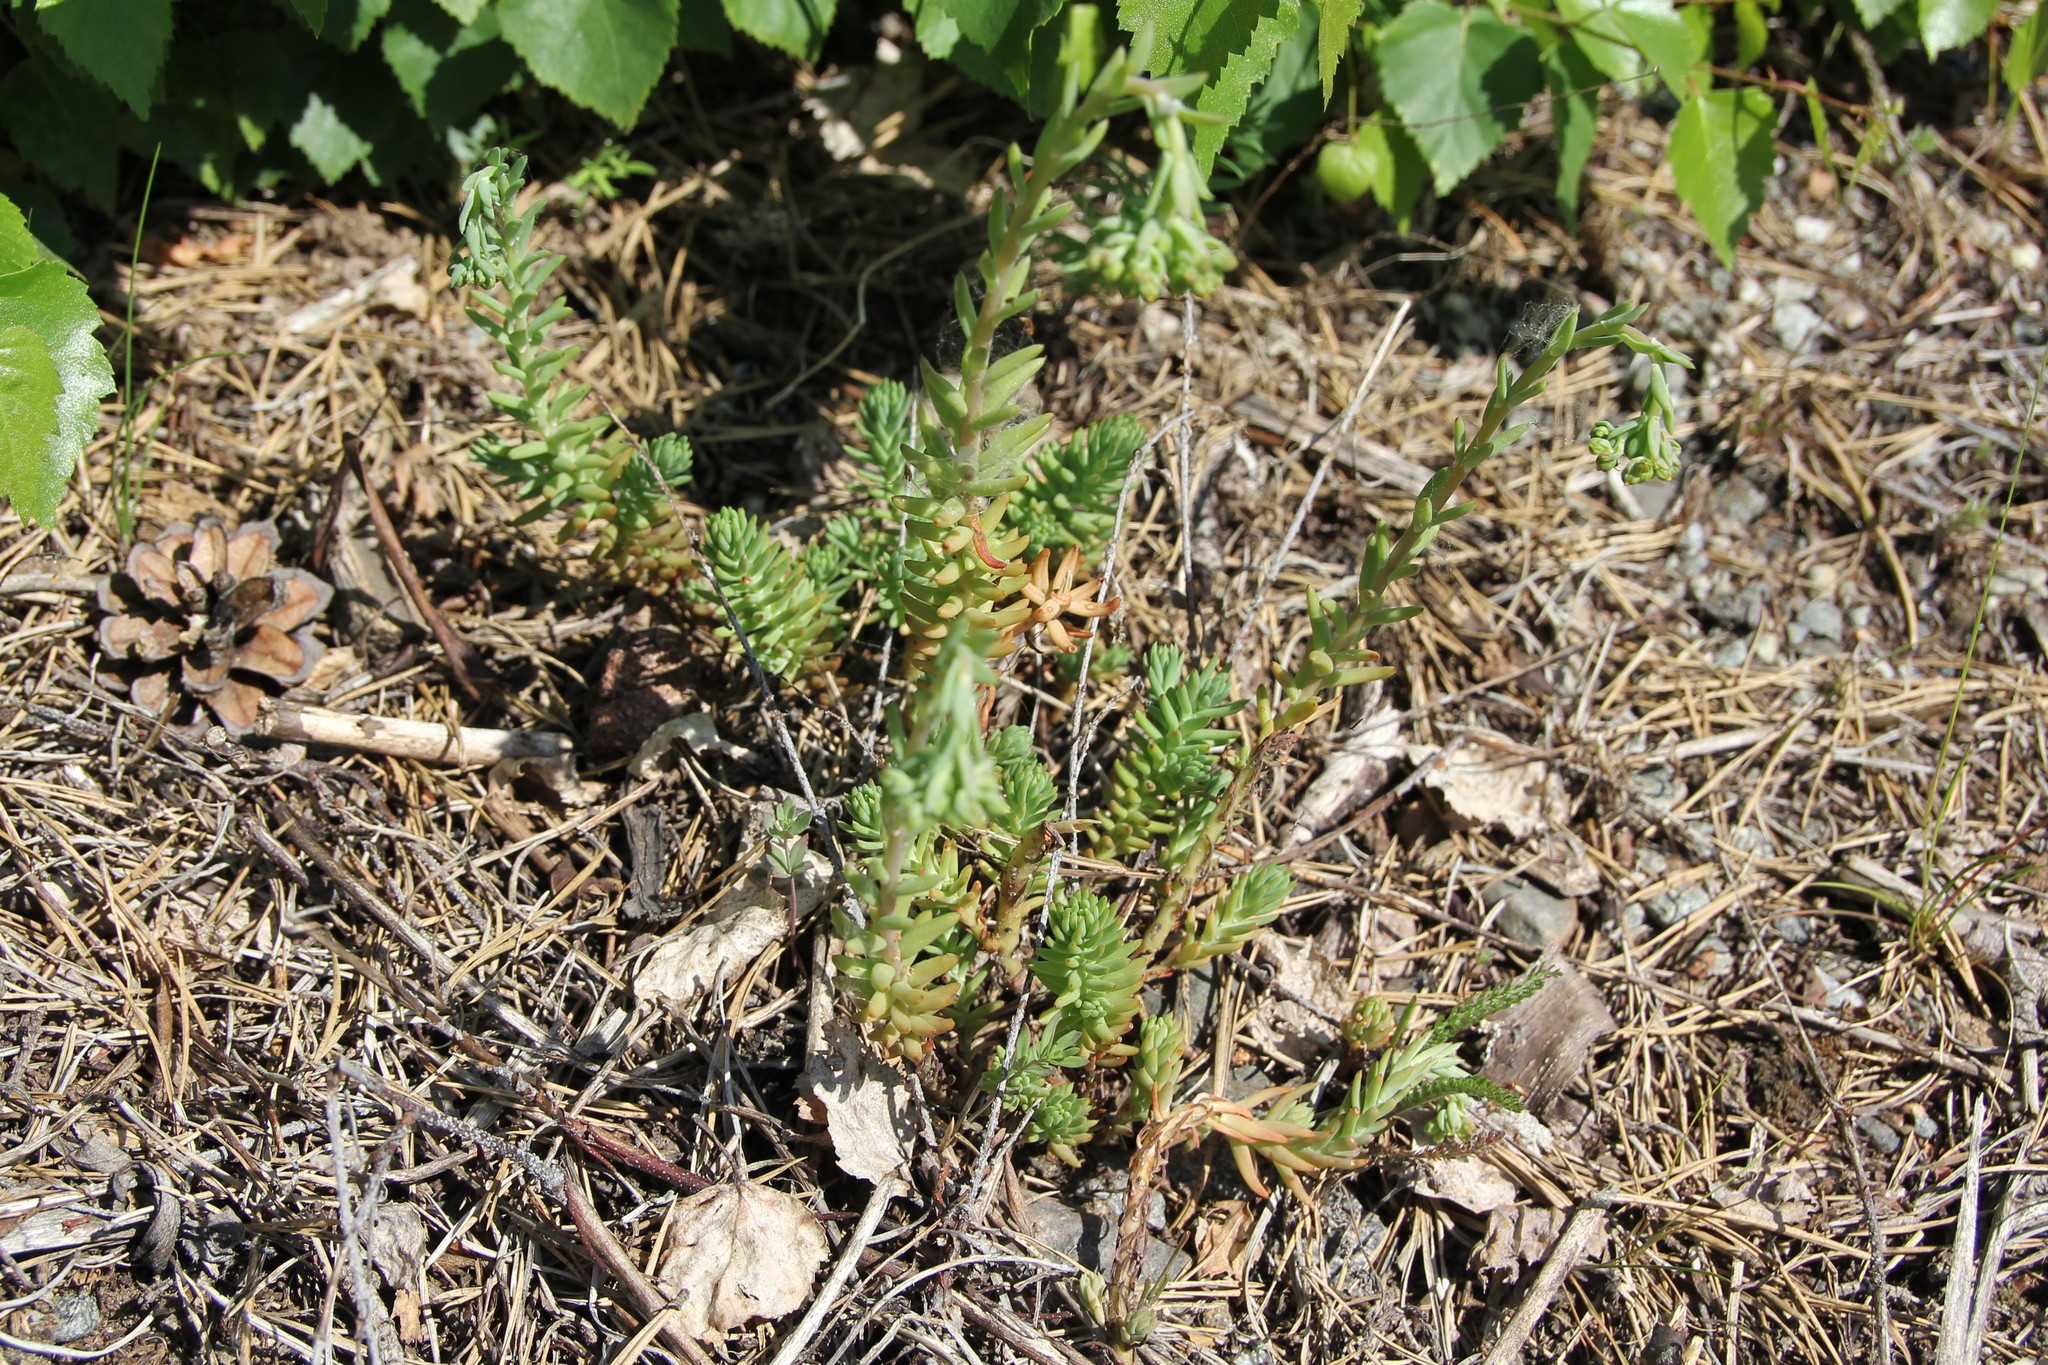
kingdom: Plantae
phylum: Tracheophyta
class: Magnoliopsida
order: Saxifragales
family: Crassulaceae
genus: Petrosedum
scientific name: Petrosedum rupestre
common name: Jenny's stonecrop
